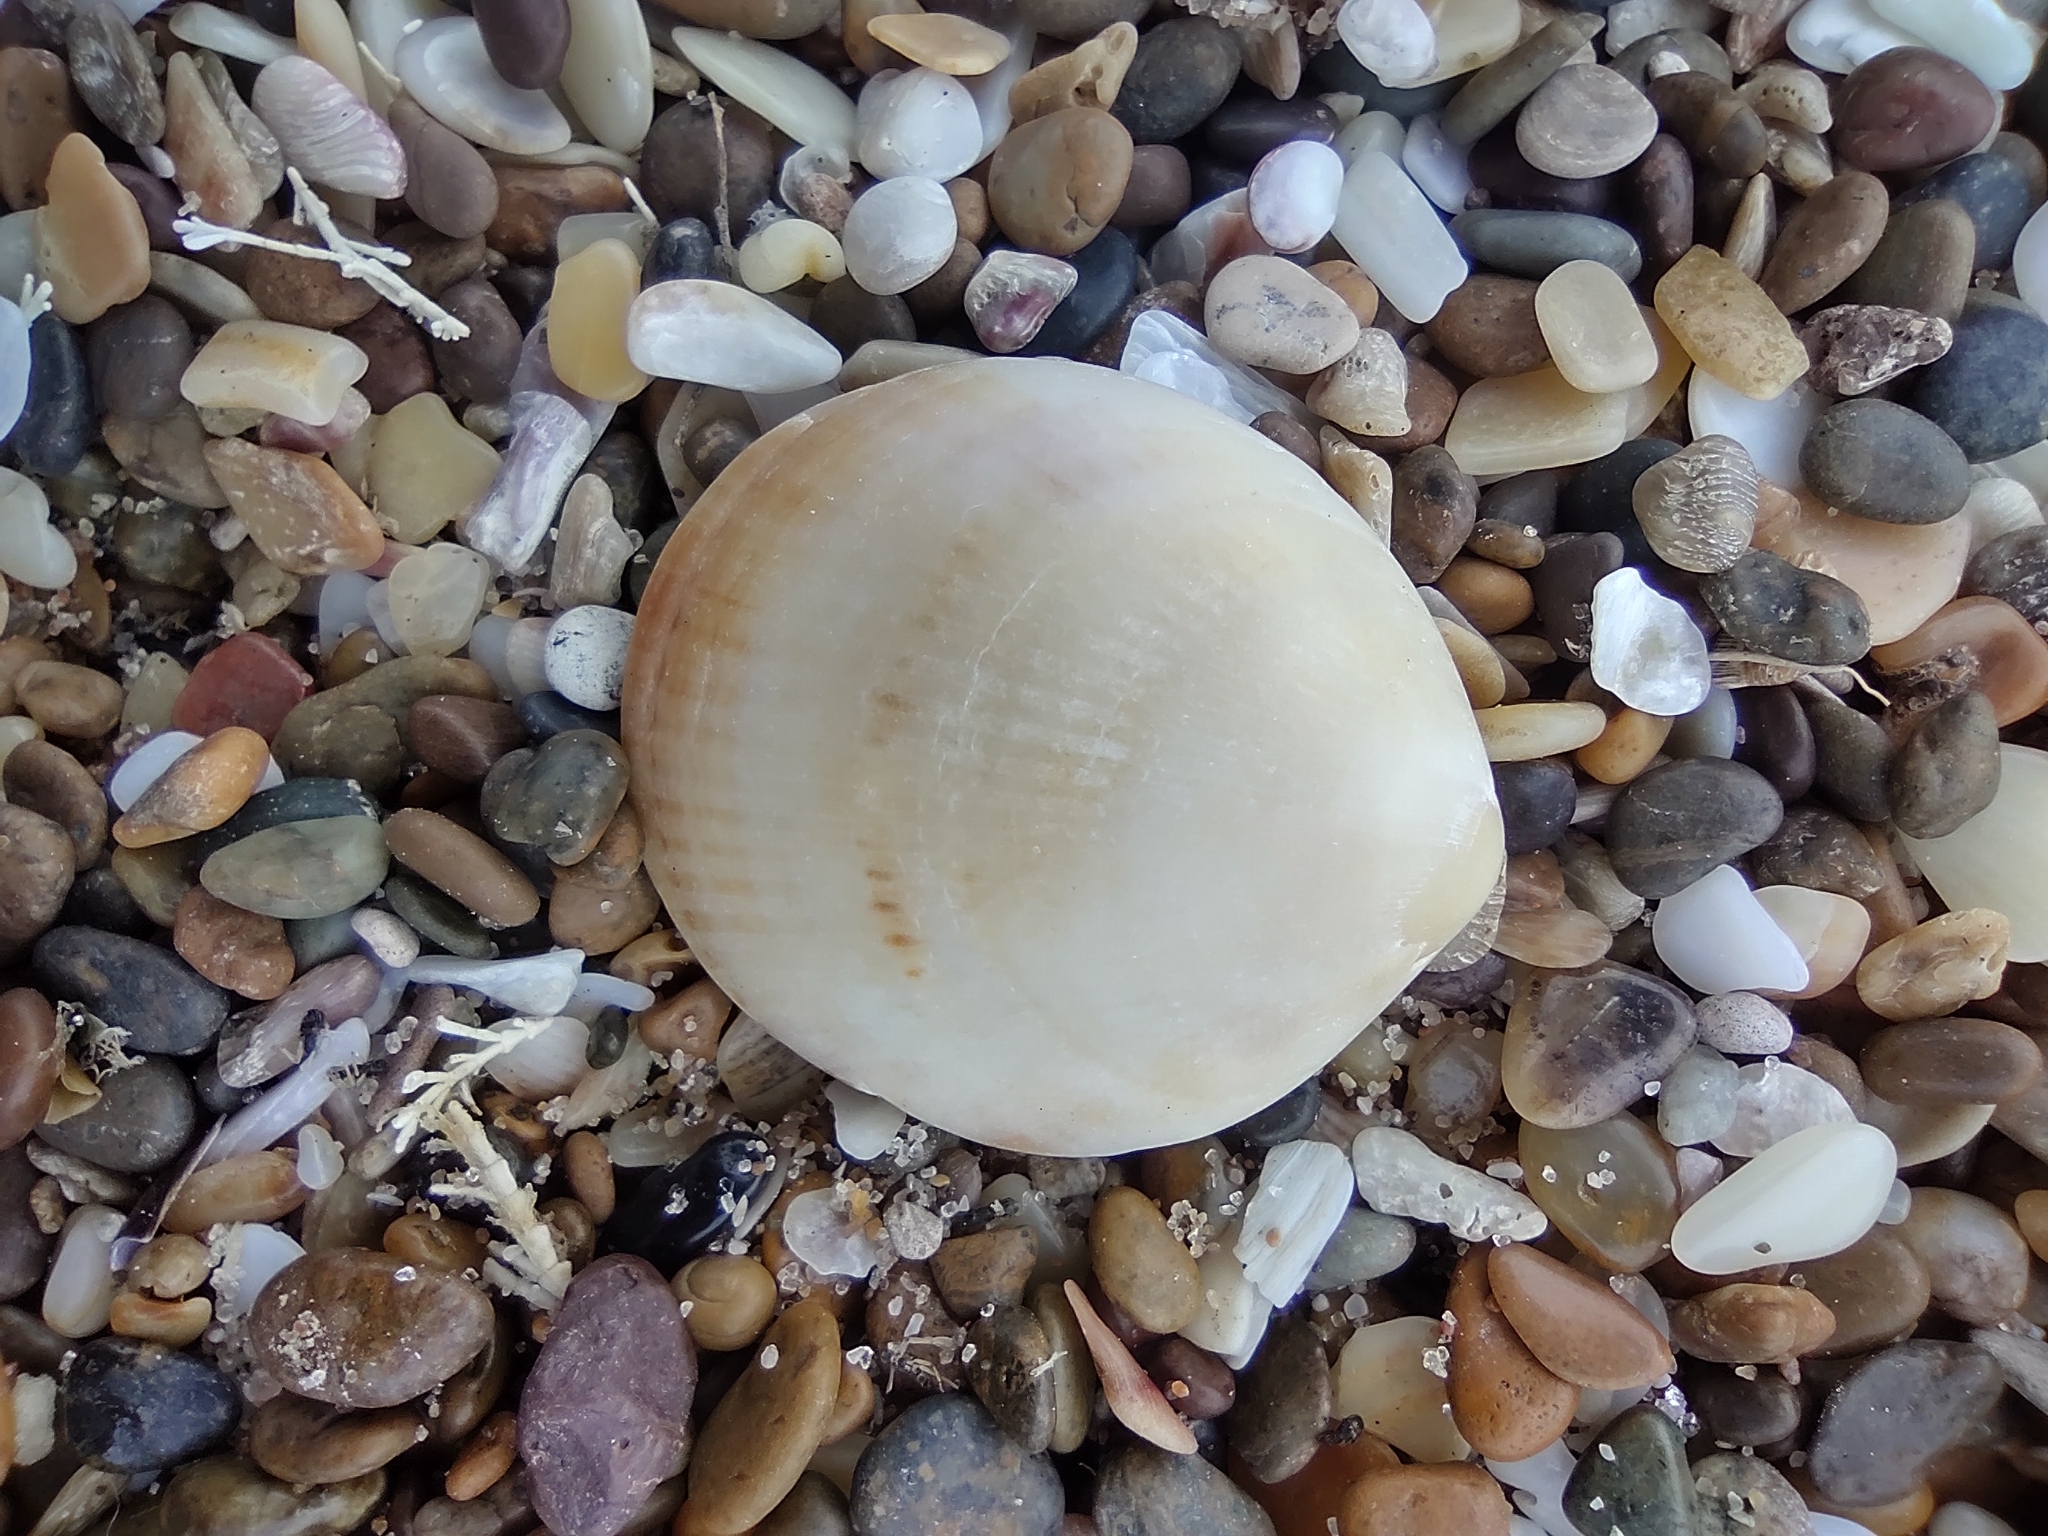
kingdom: Animalia
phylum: Mollusca
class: Bivalvia
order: Arcida
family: Glycymerididae
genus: Glycymeris
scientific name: Glycymeris longior
